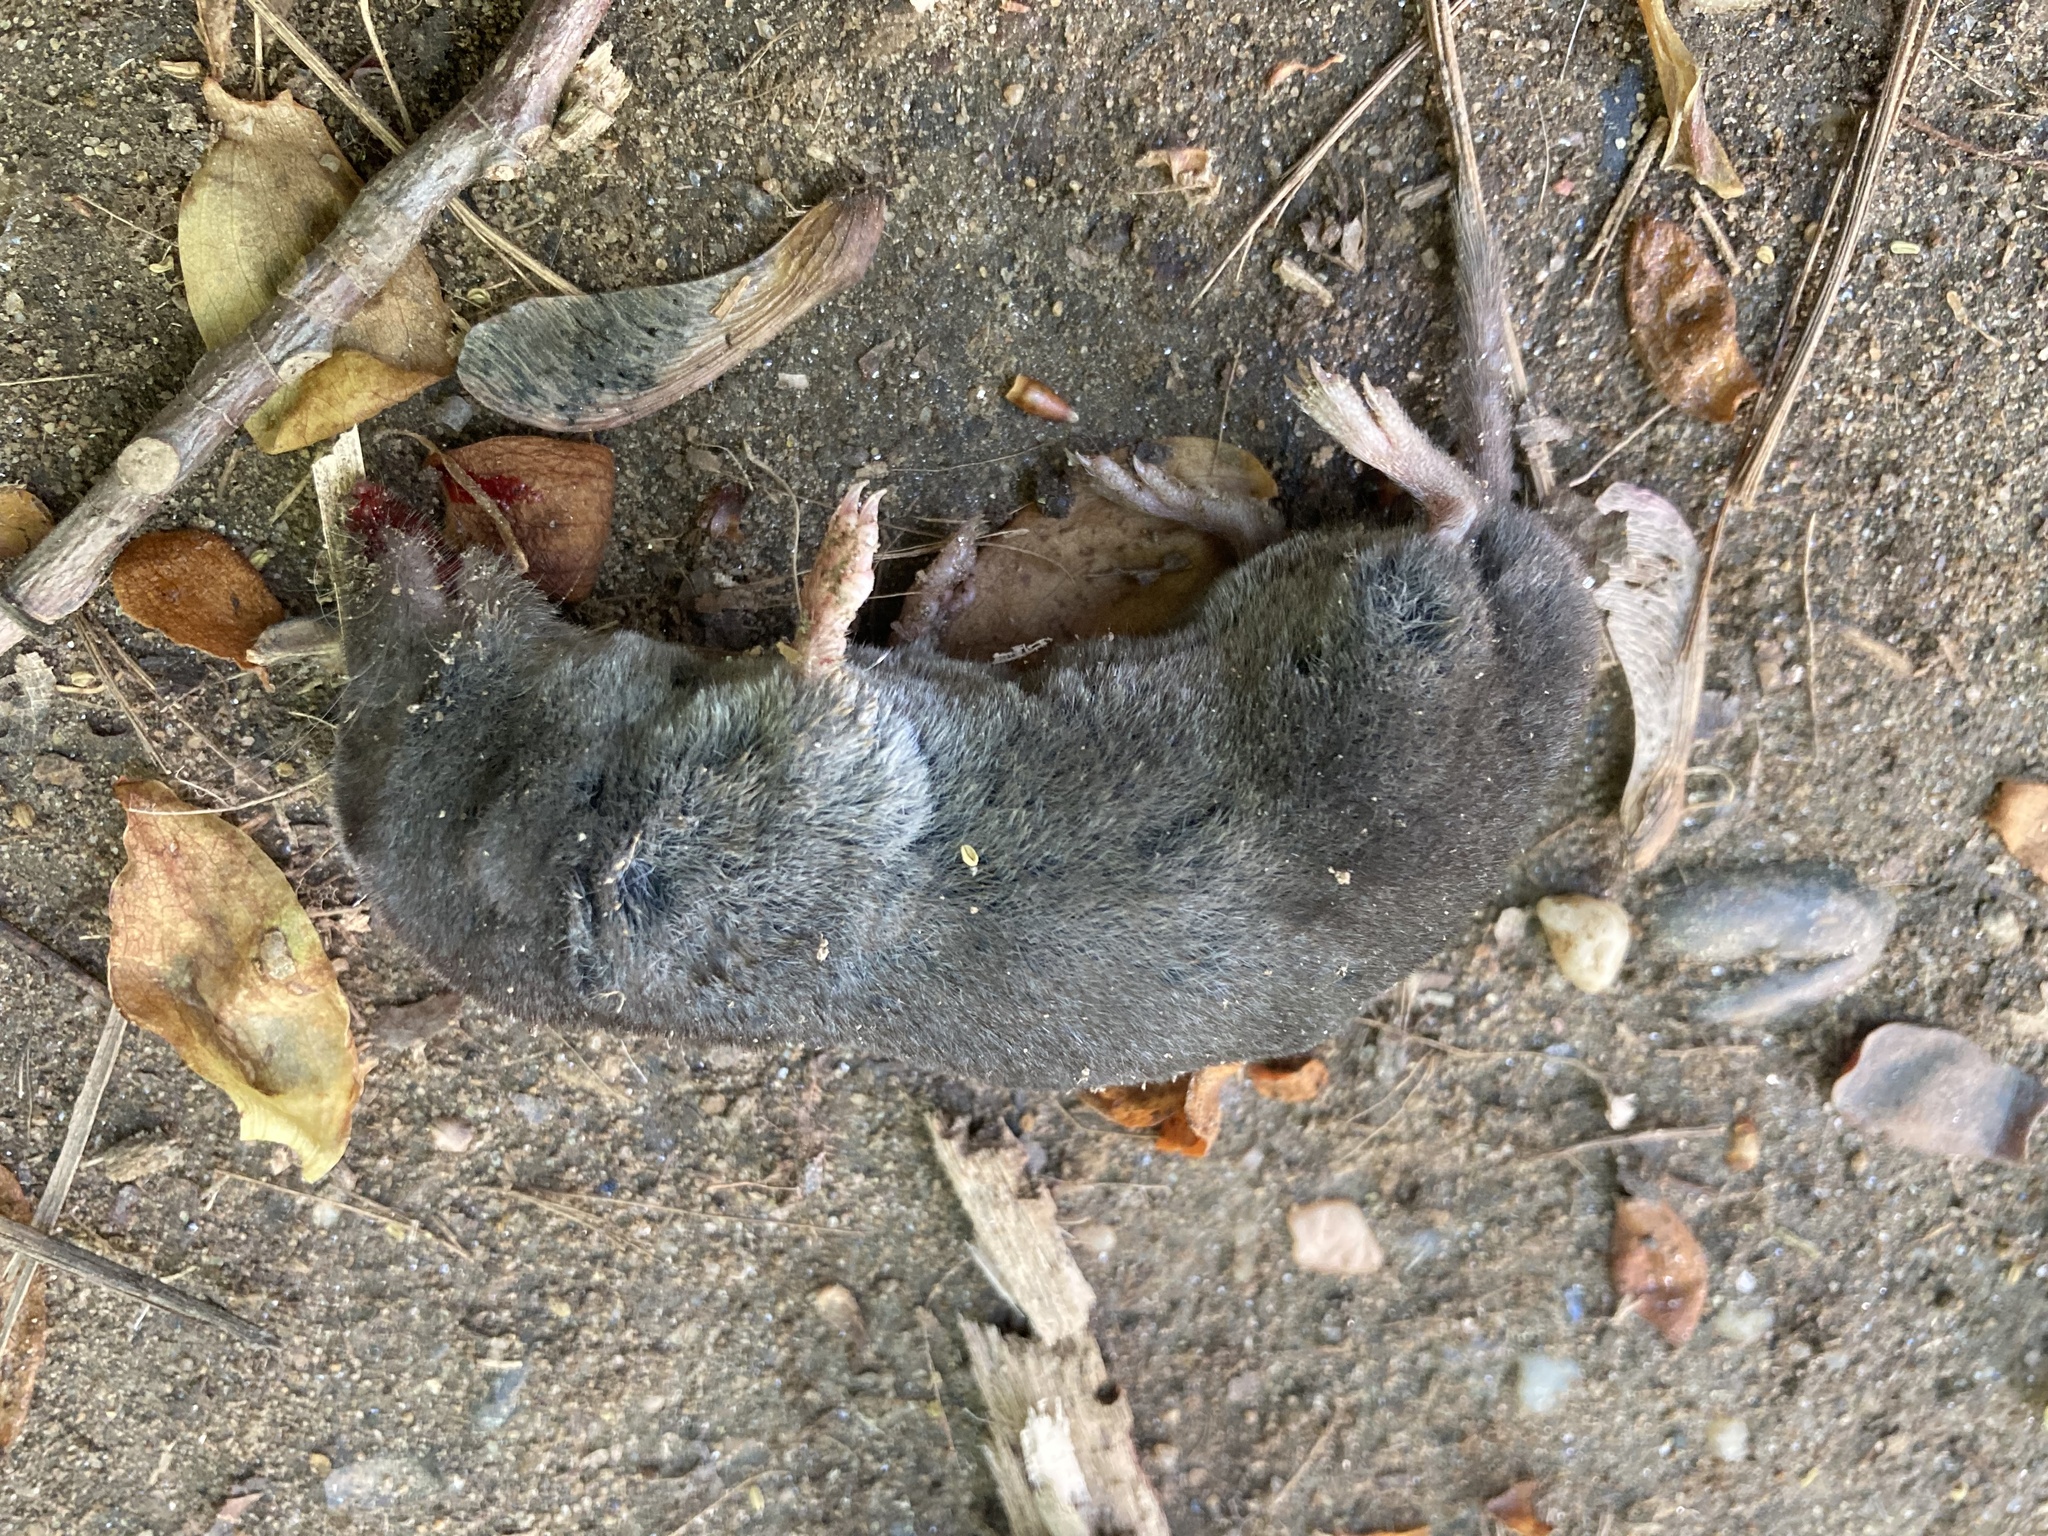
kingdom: Animalia
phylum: Chordata
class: Mammalia
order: Soricomorpha
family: Soricidae
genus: Blarina
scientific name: Blarina brevicauda
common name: Northern short-tailed shrew
